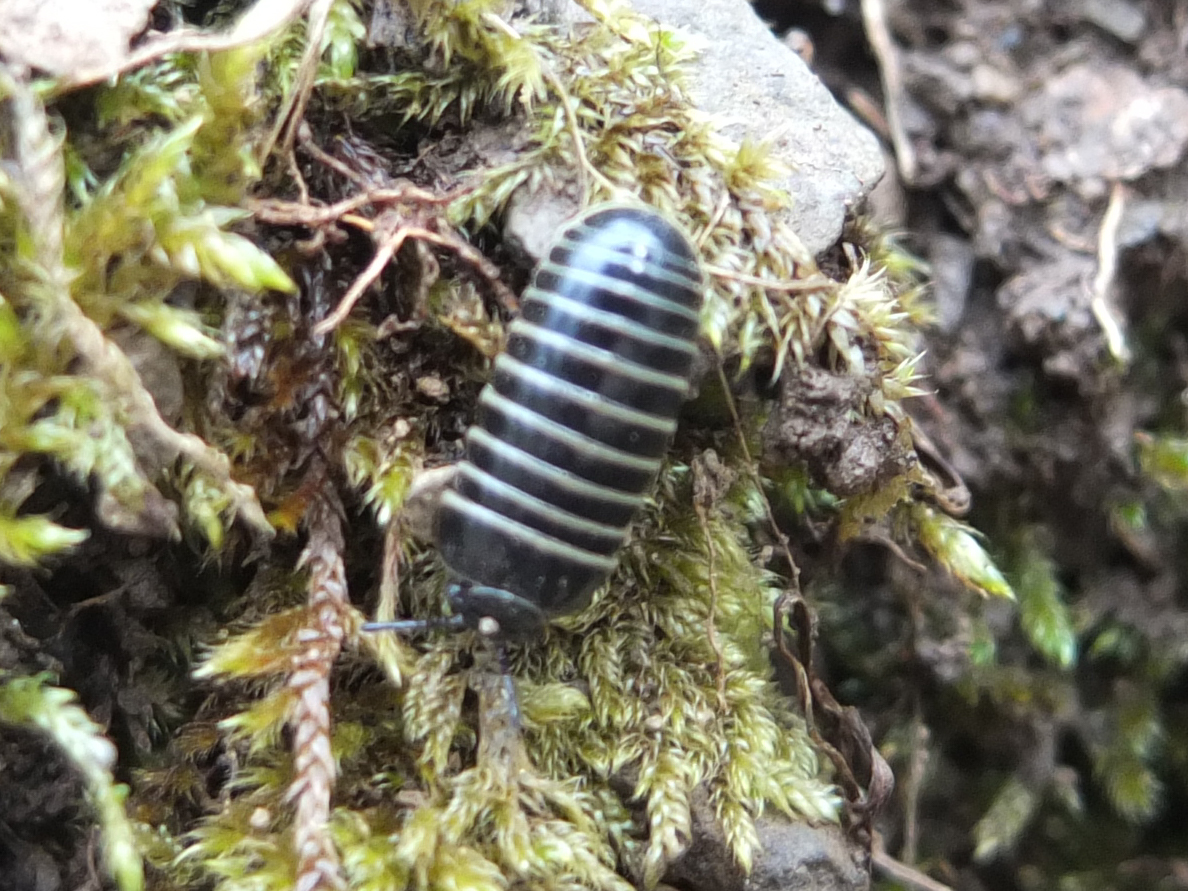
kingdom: Animalia
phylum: Arthropoda
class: Diplopoda
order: Glomerida
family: Glomeridae
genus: Glomeris
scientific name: Glomeris marginata
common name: Bordered pill millipede
